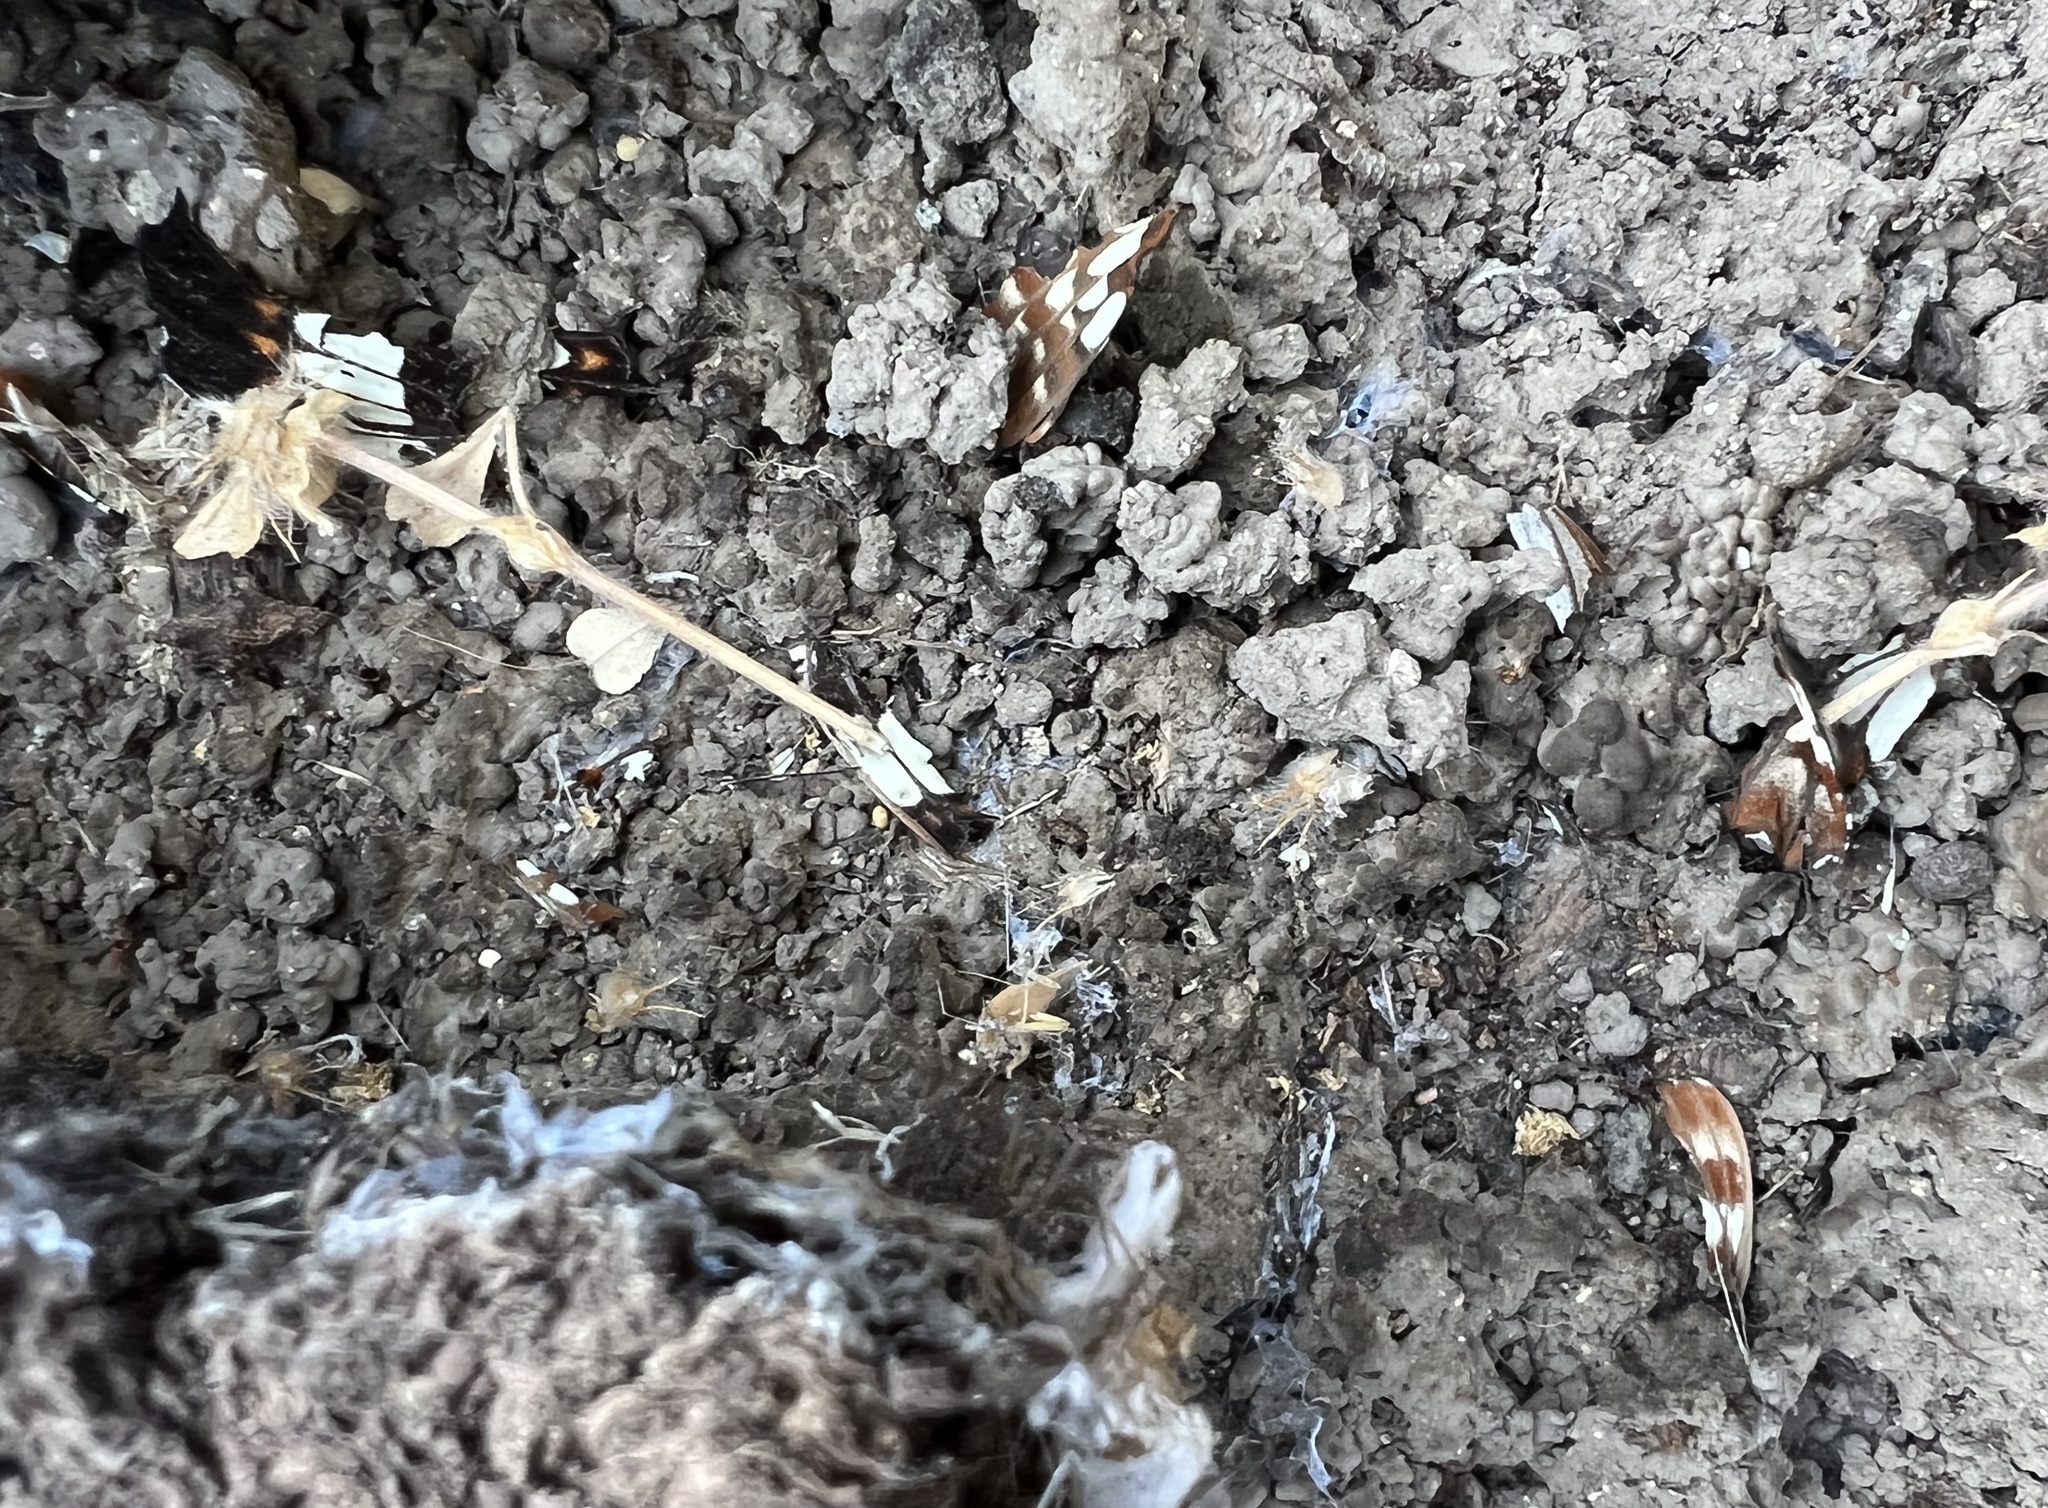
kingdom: Animalia
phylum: Arthropoda
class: Insecta
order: Lepidoptera
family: Nymphalidae
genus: Limenitis
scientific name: Limenitis lorquini
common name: Lorquin's admiral
